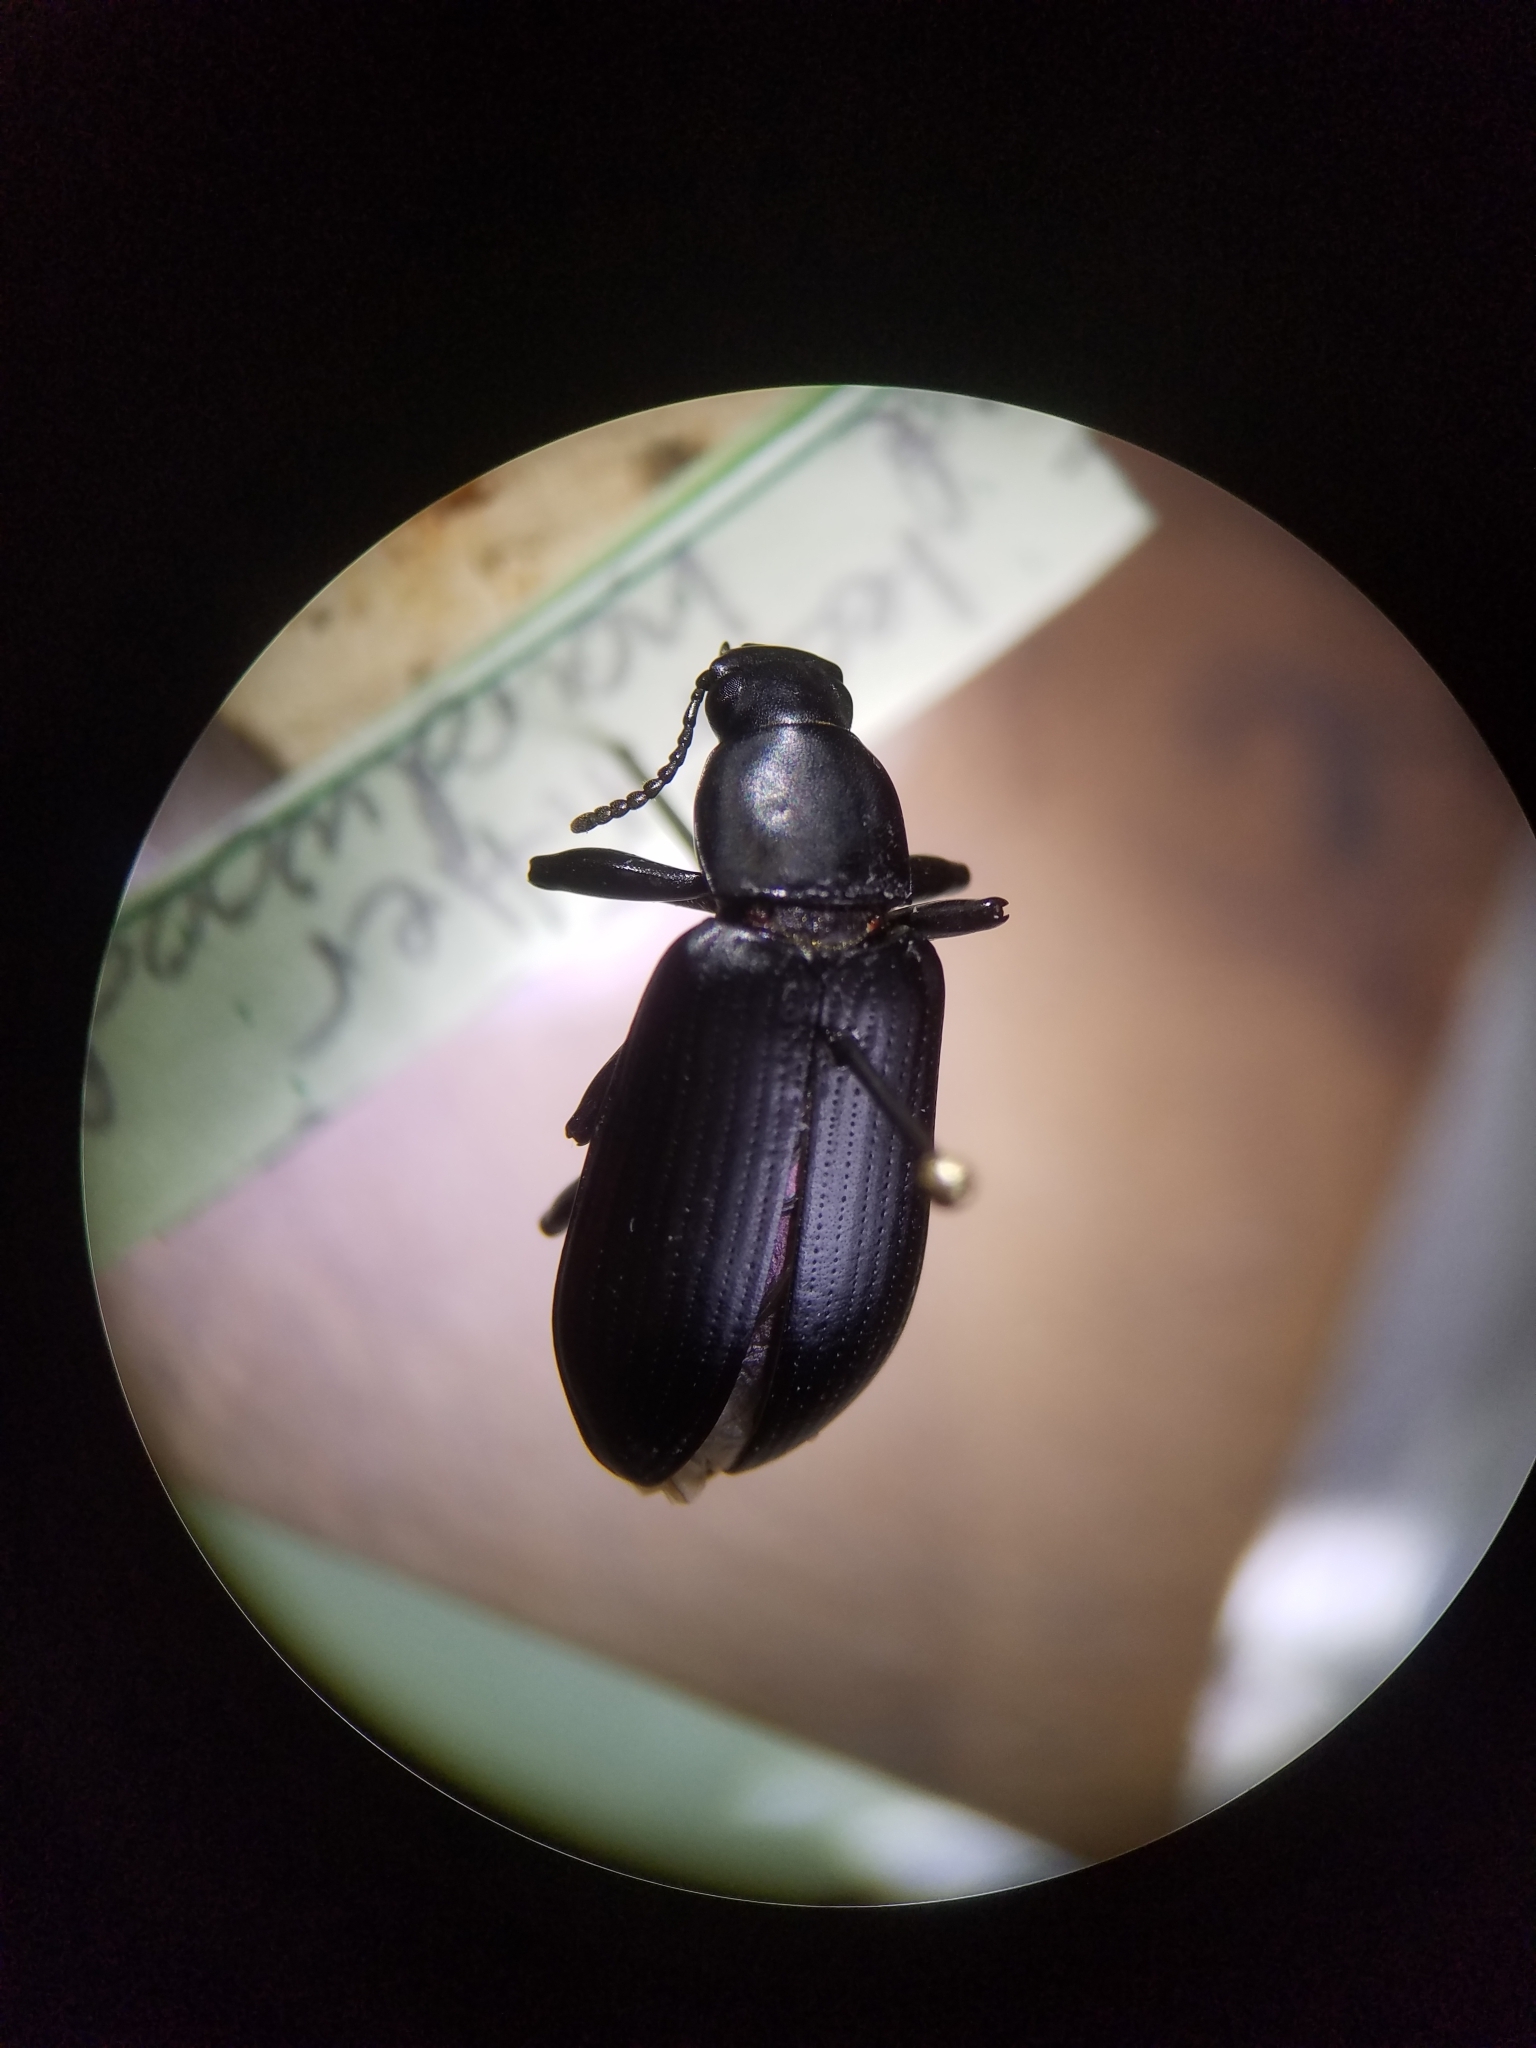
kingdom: Animalia
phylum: Arthropoda
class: Insecta
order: Coleoptera
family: Tenebrionidae
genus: Alobates
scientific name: Alobates
